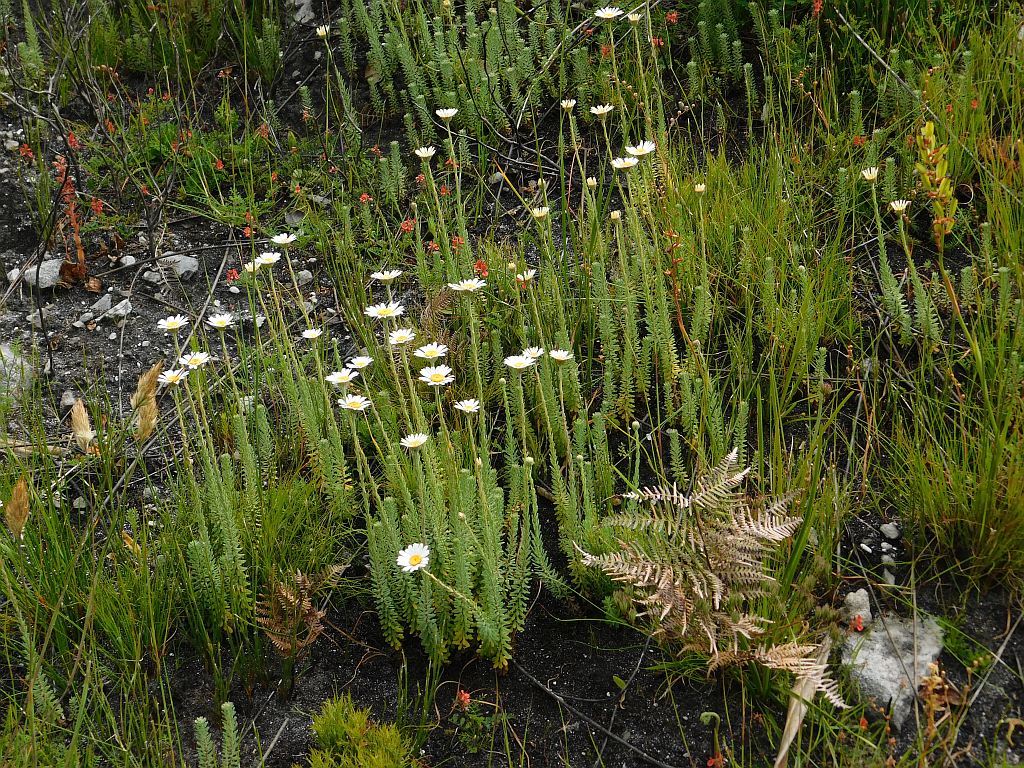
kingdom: Plantae
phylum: Tracheophyta
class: Magnoliopsida
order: Asterales
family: Asteraceae
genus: Osmitopsis
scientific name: Osmitopsis afra
